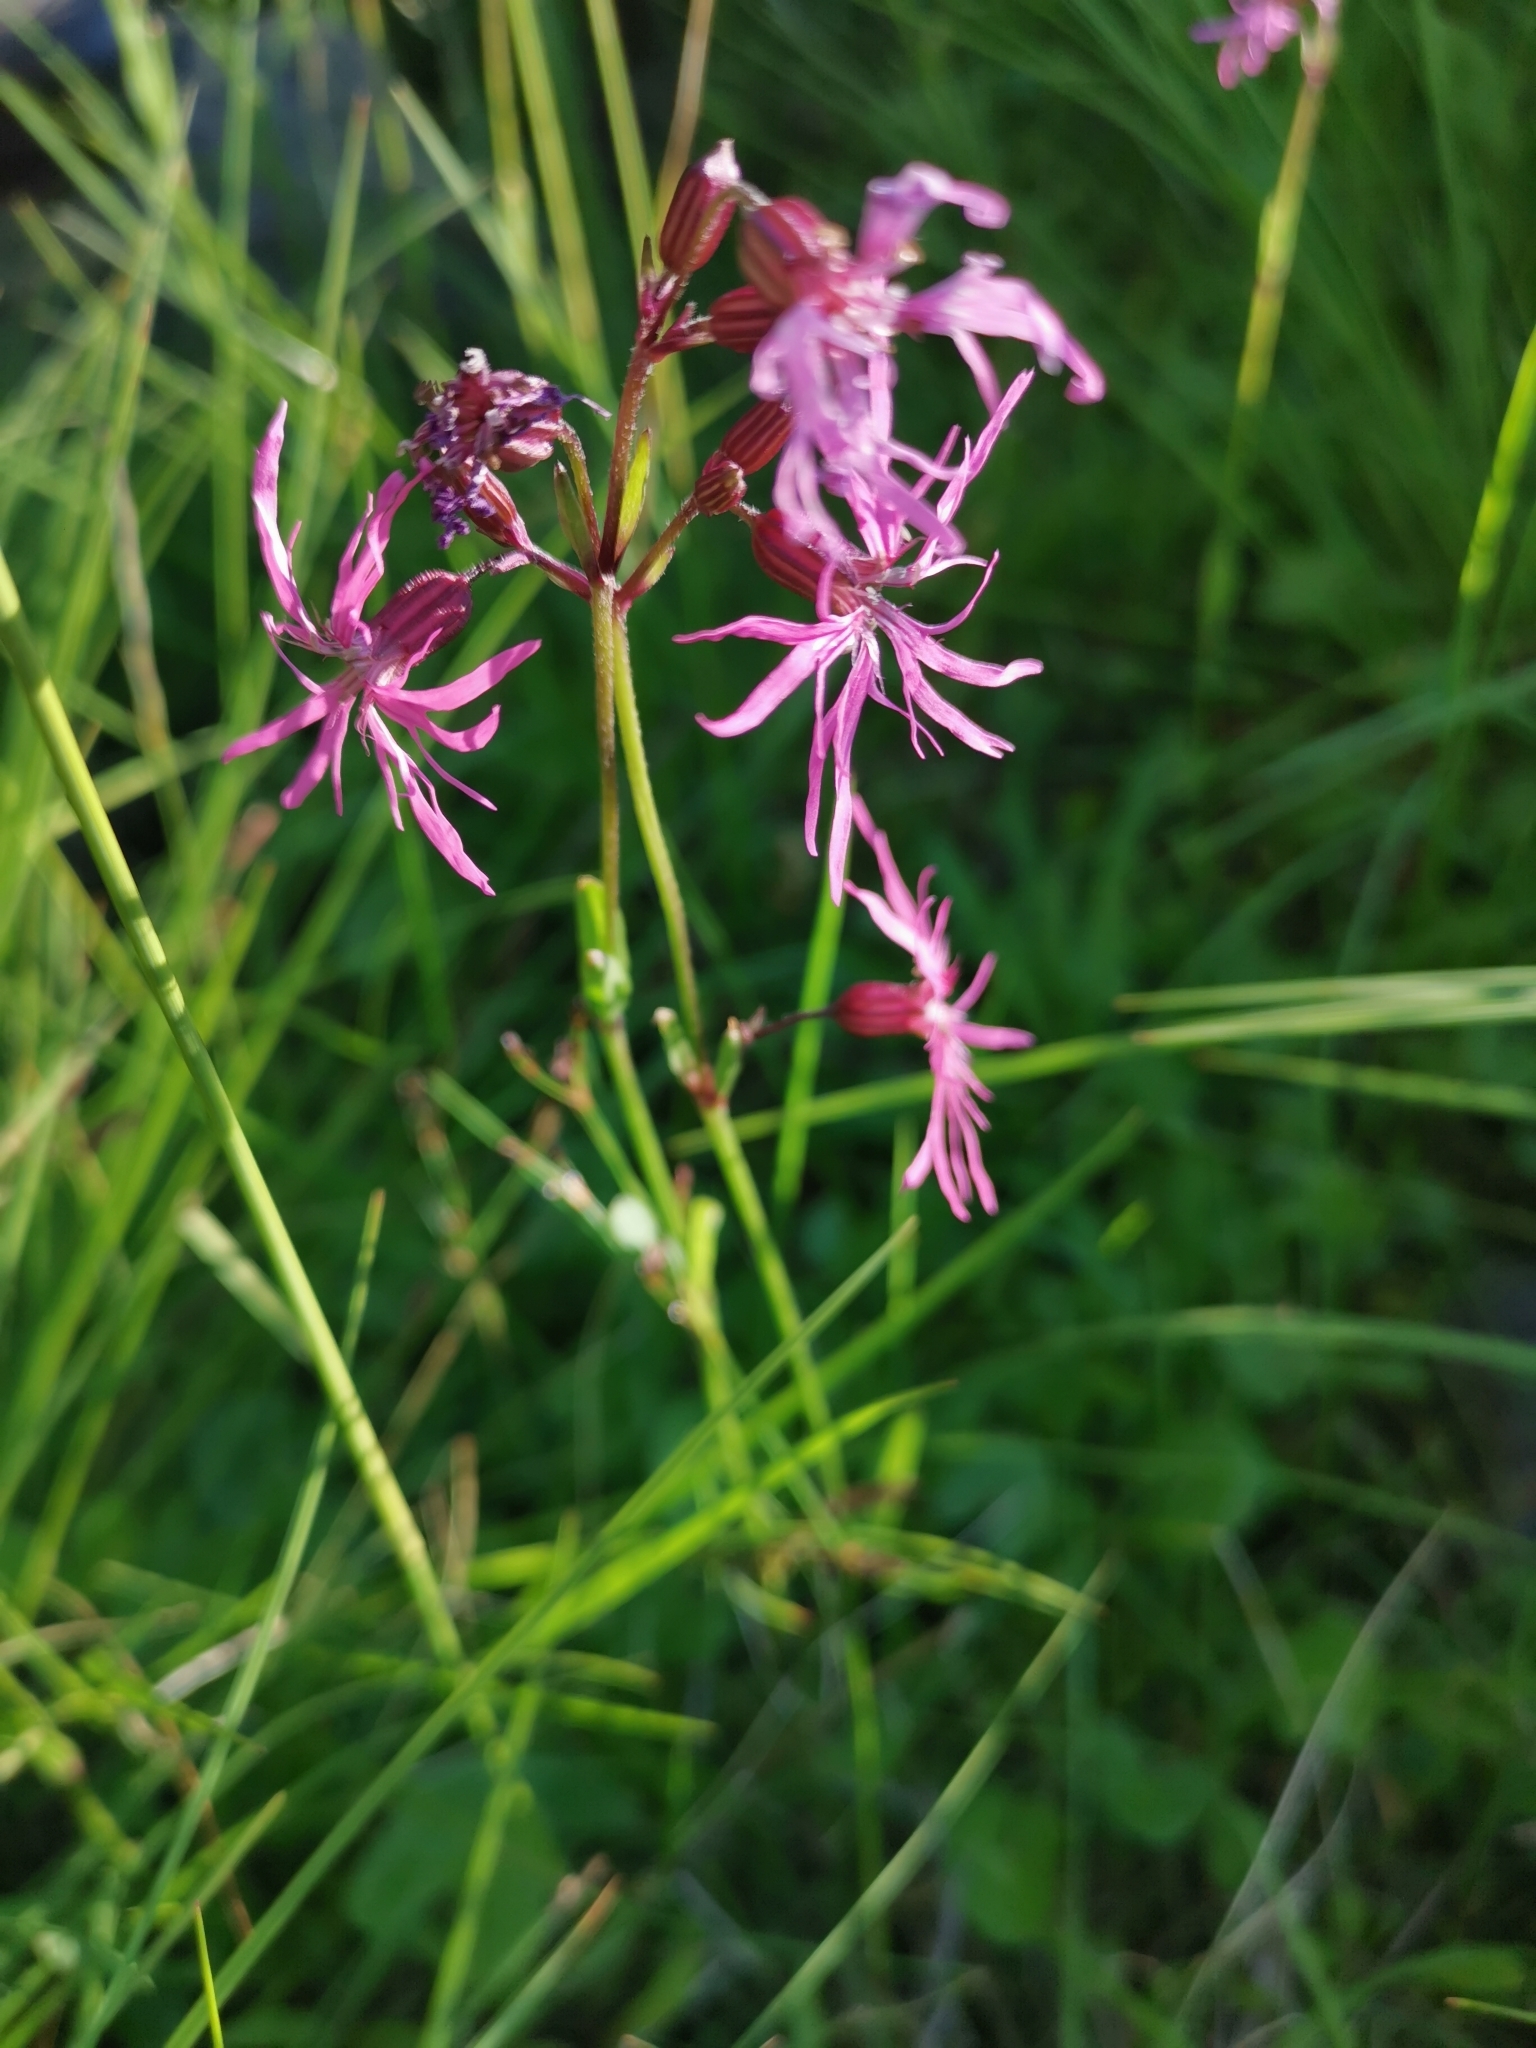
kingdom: Plantae
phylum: Tracheophyta
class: Magnoliopsida
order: Caryophyllales
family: Caryophyllaceae
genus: Silene
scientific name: Silene flos-cuculi
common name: Ragged-robin
